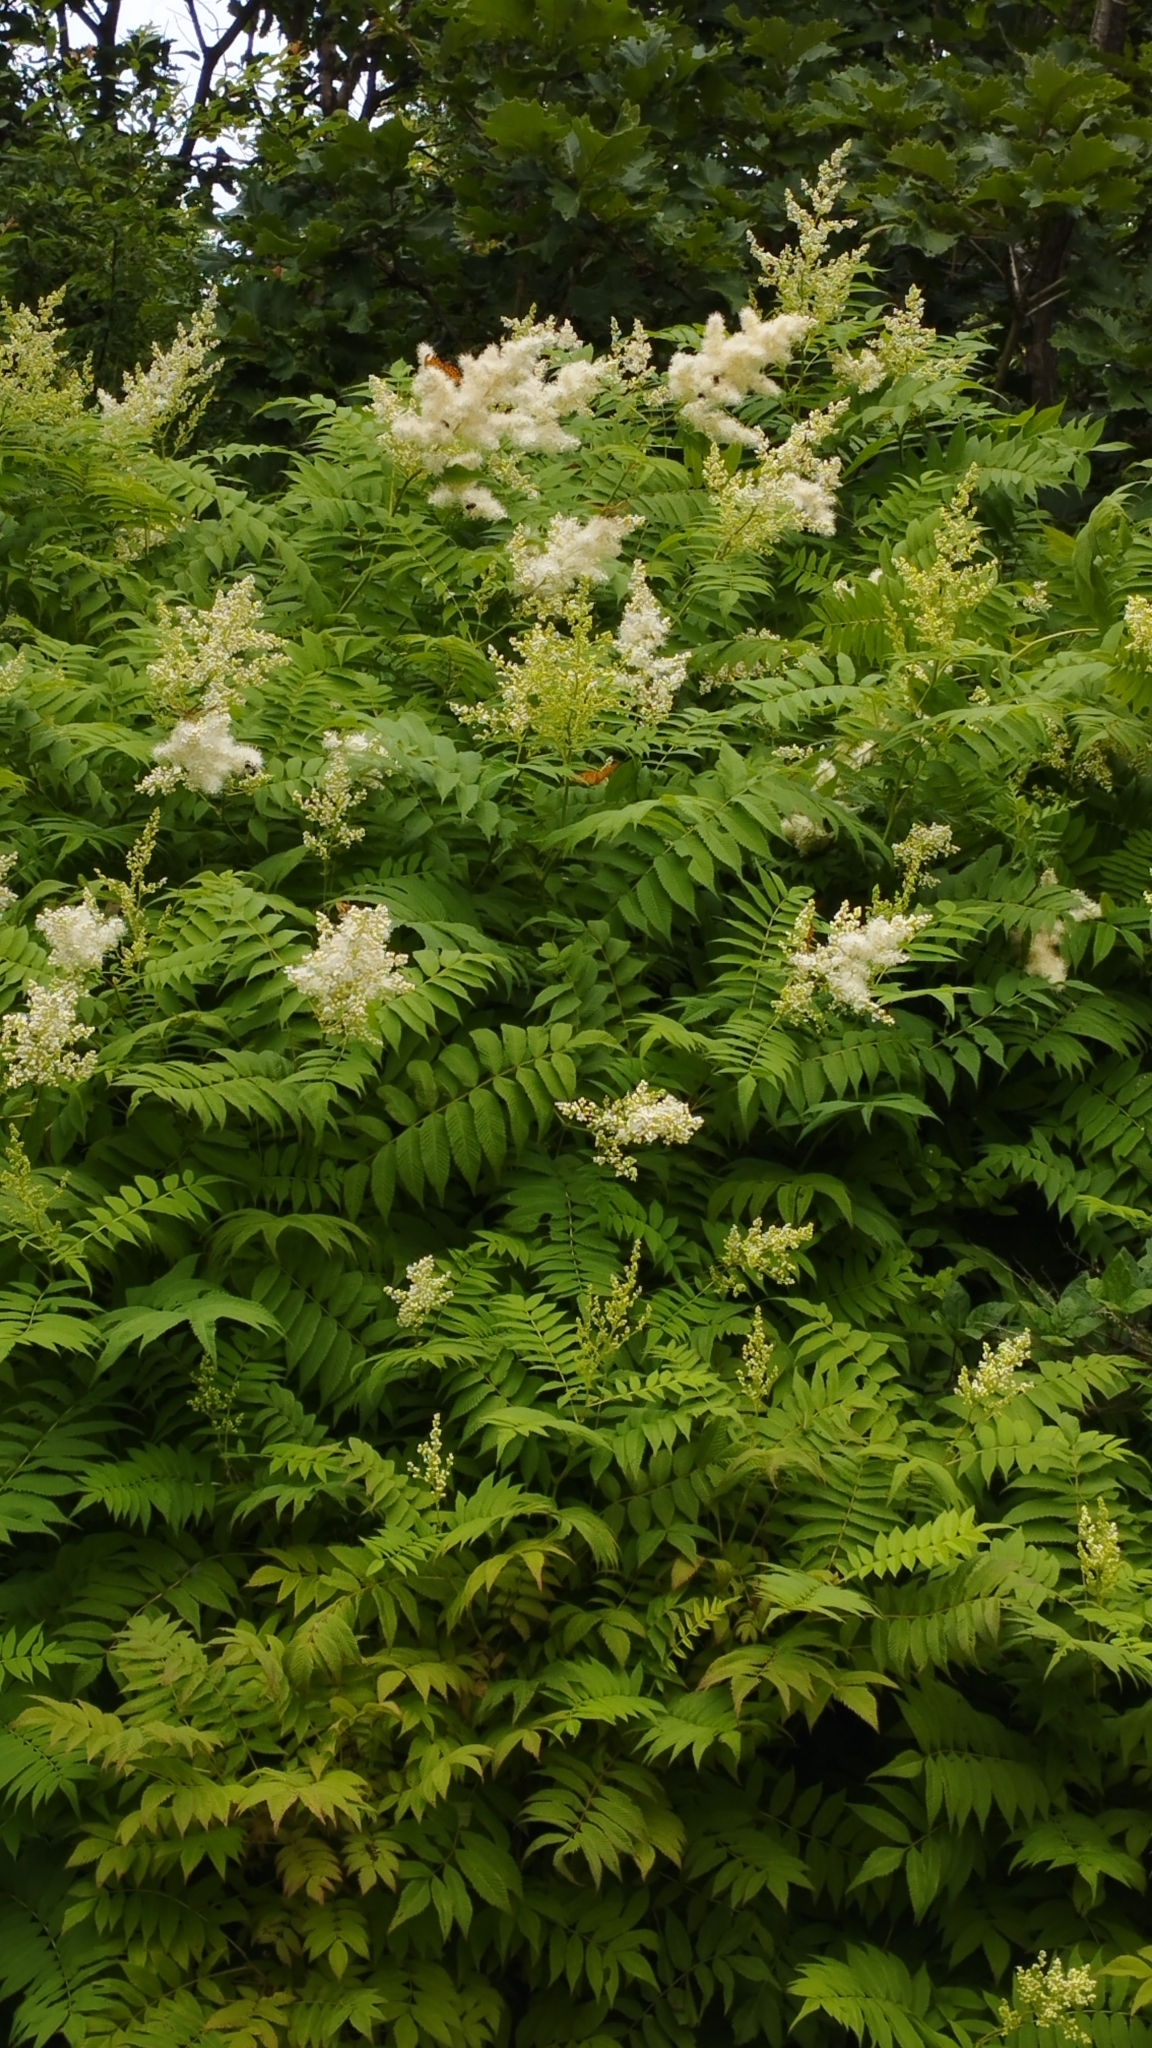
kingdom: Plantae
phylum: Tracheophyta
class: Magnoliopsida
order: Rosales
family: Rosaceae
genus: Sorbaria
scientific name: Sorbaria sorbifolia
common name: False spiraea
